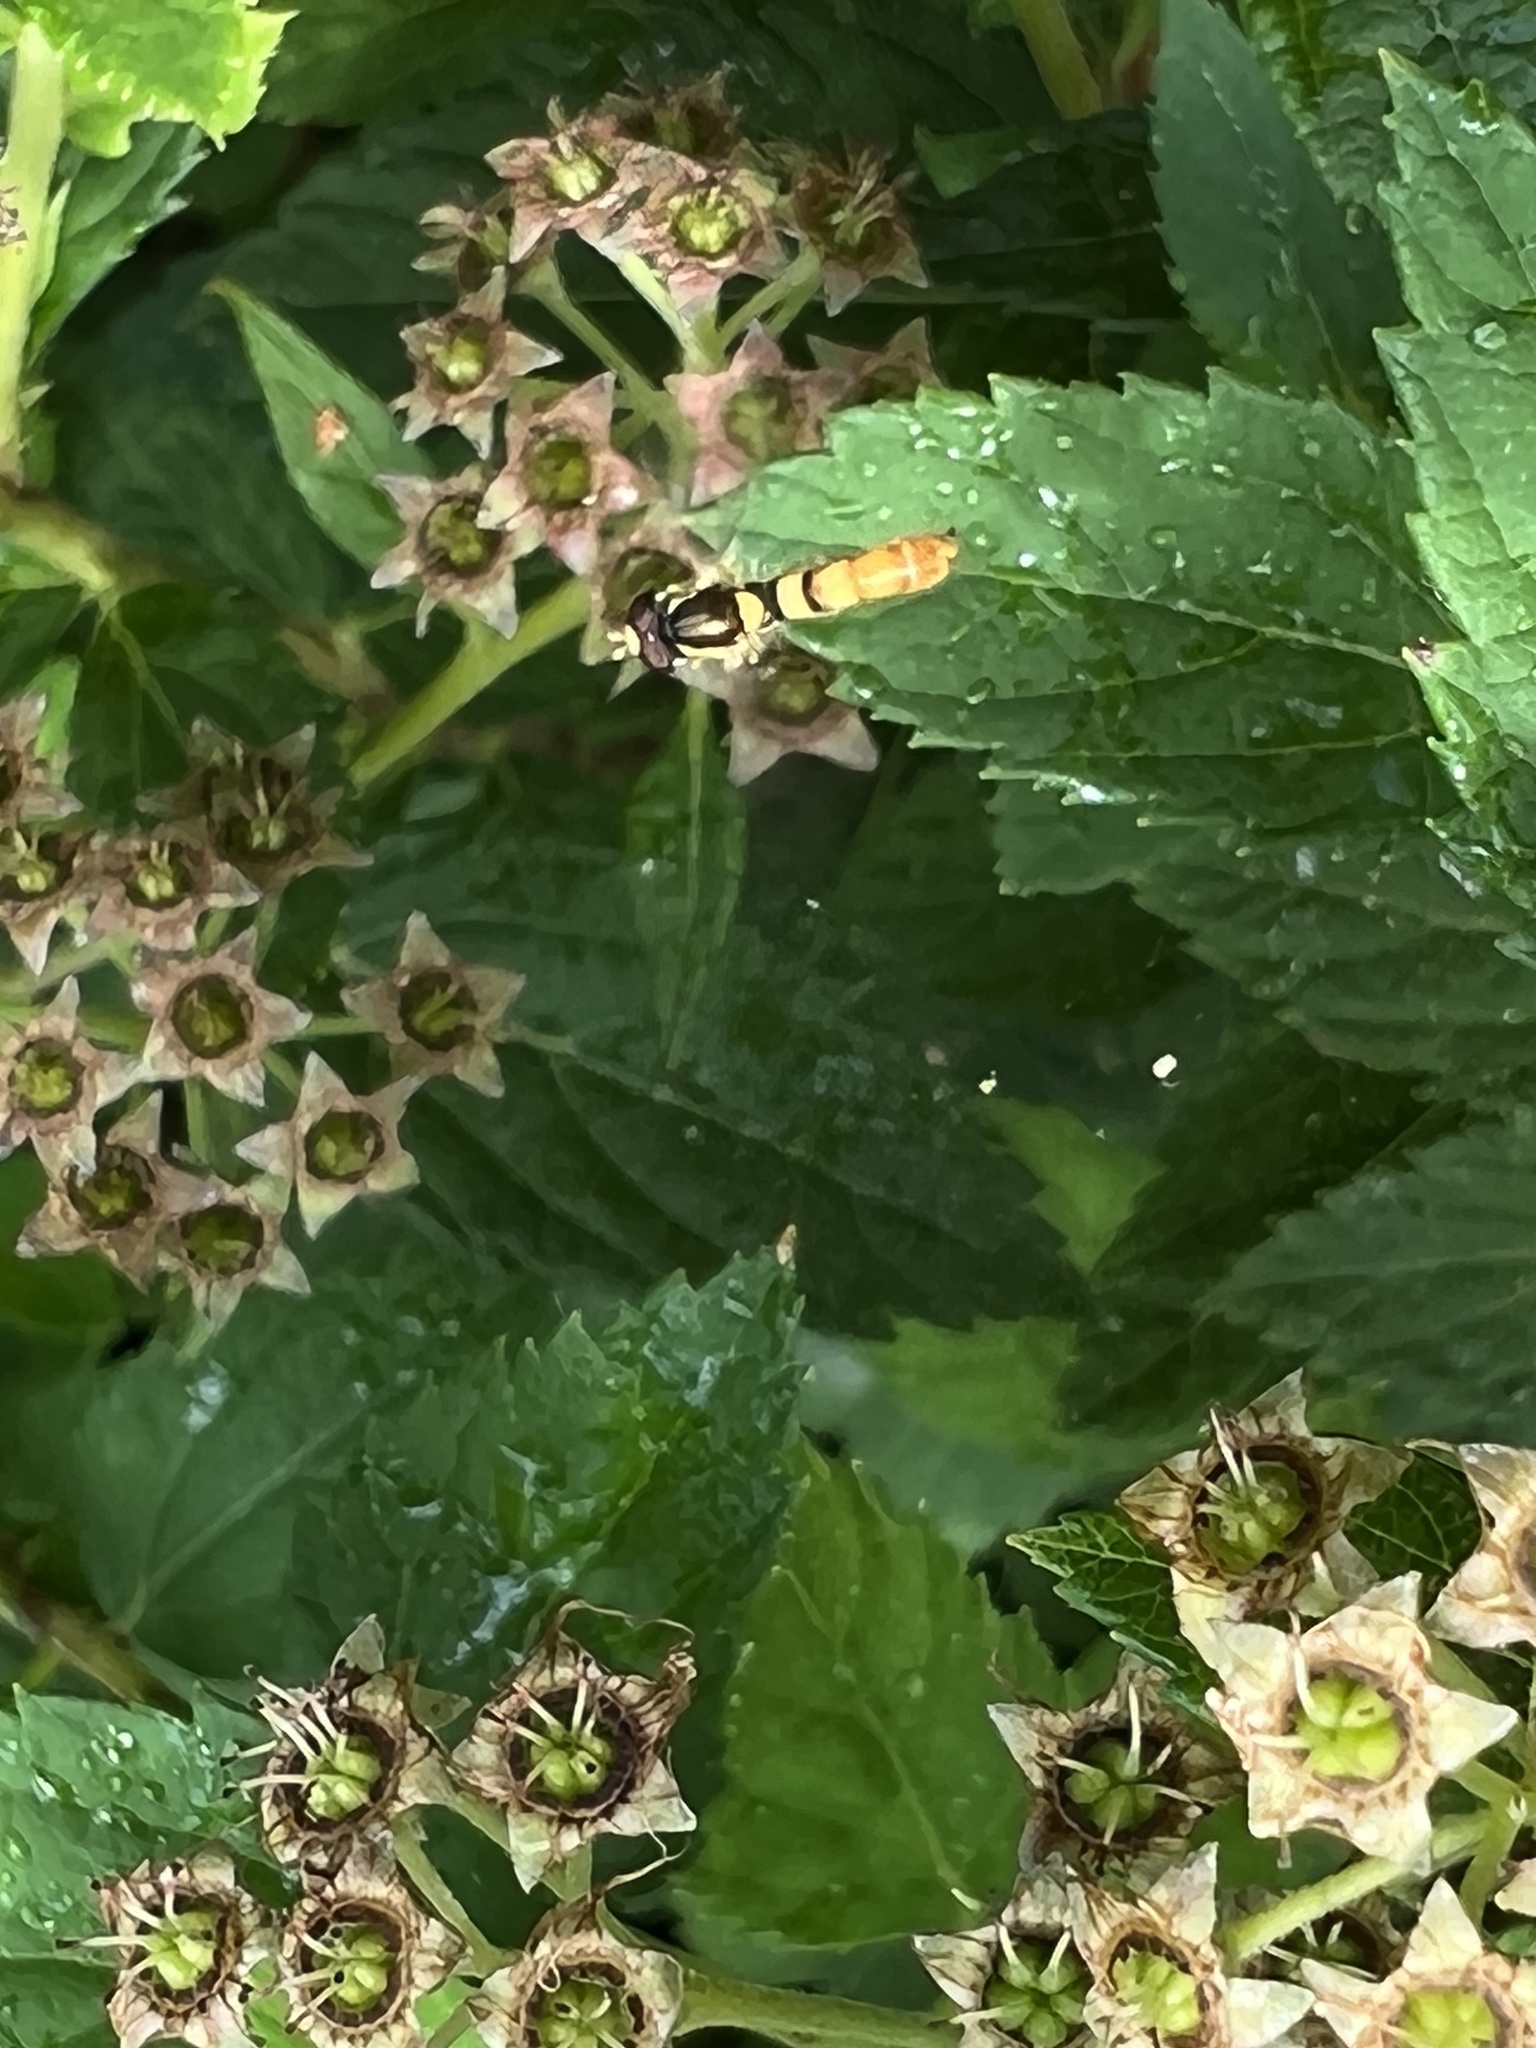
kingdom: Animalia
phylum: Arthropoda
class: Insecta
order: Diptera
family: Syrphidae
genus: Sphaerophoria
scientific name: Sphaerophoria contigua
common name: Tufted globetail
